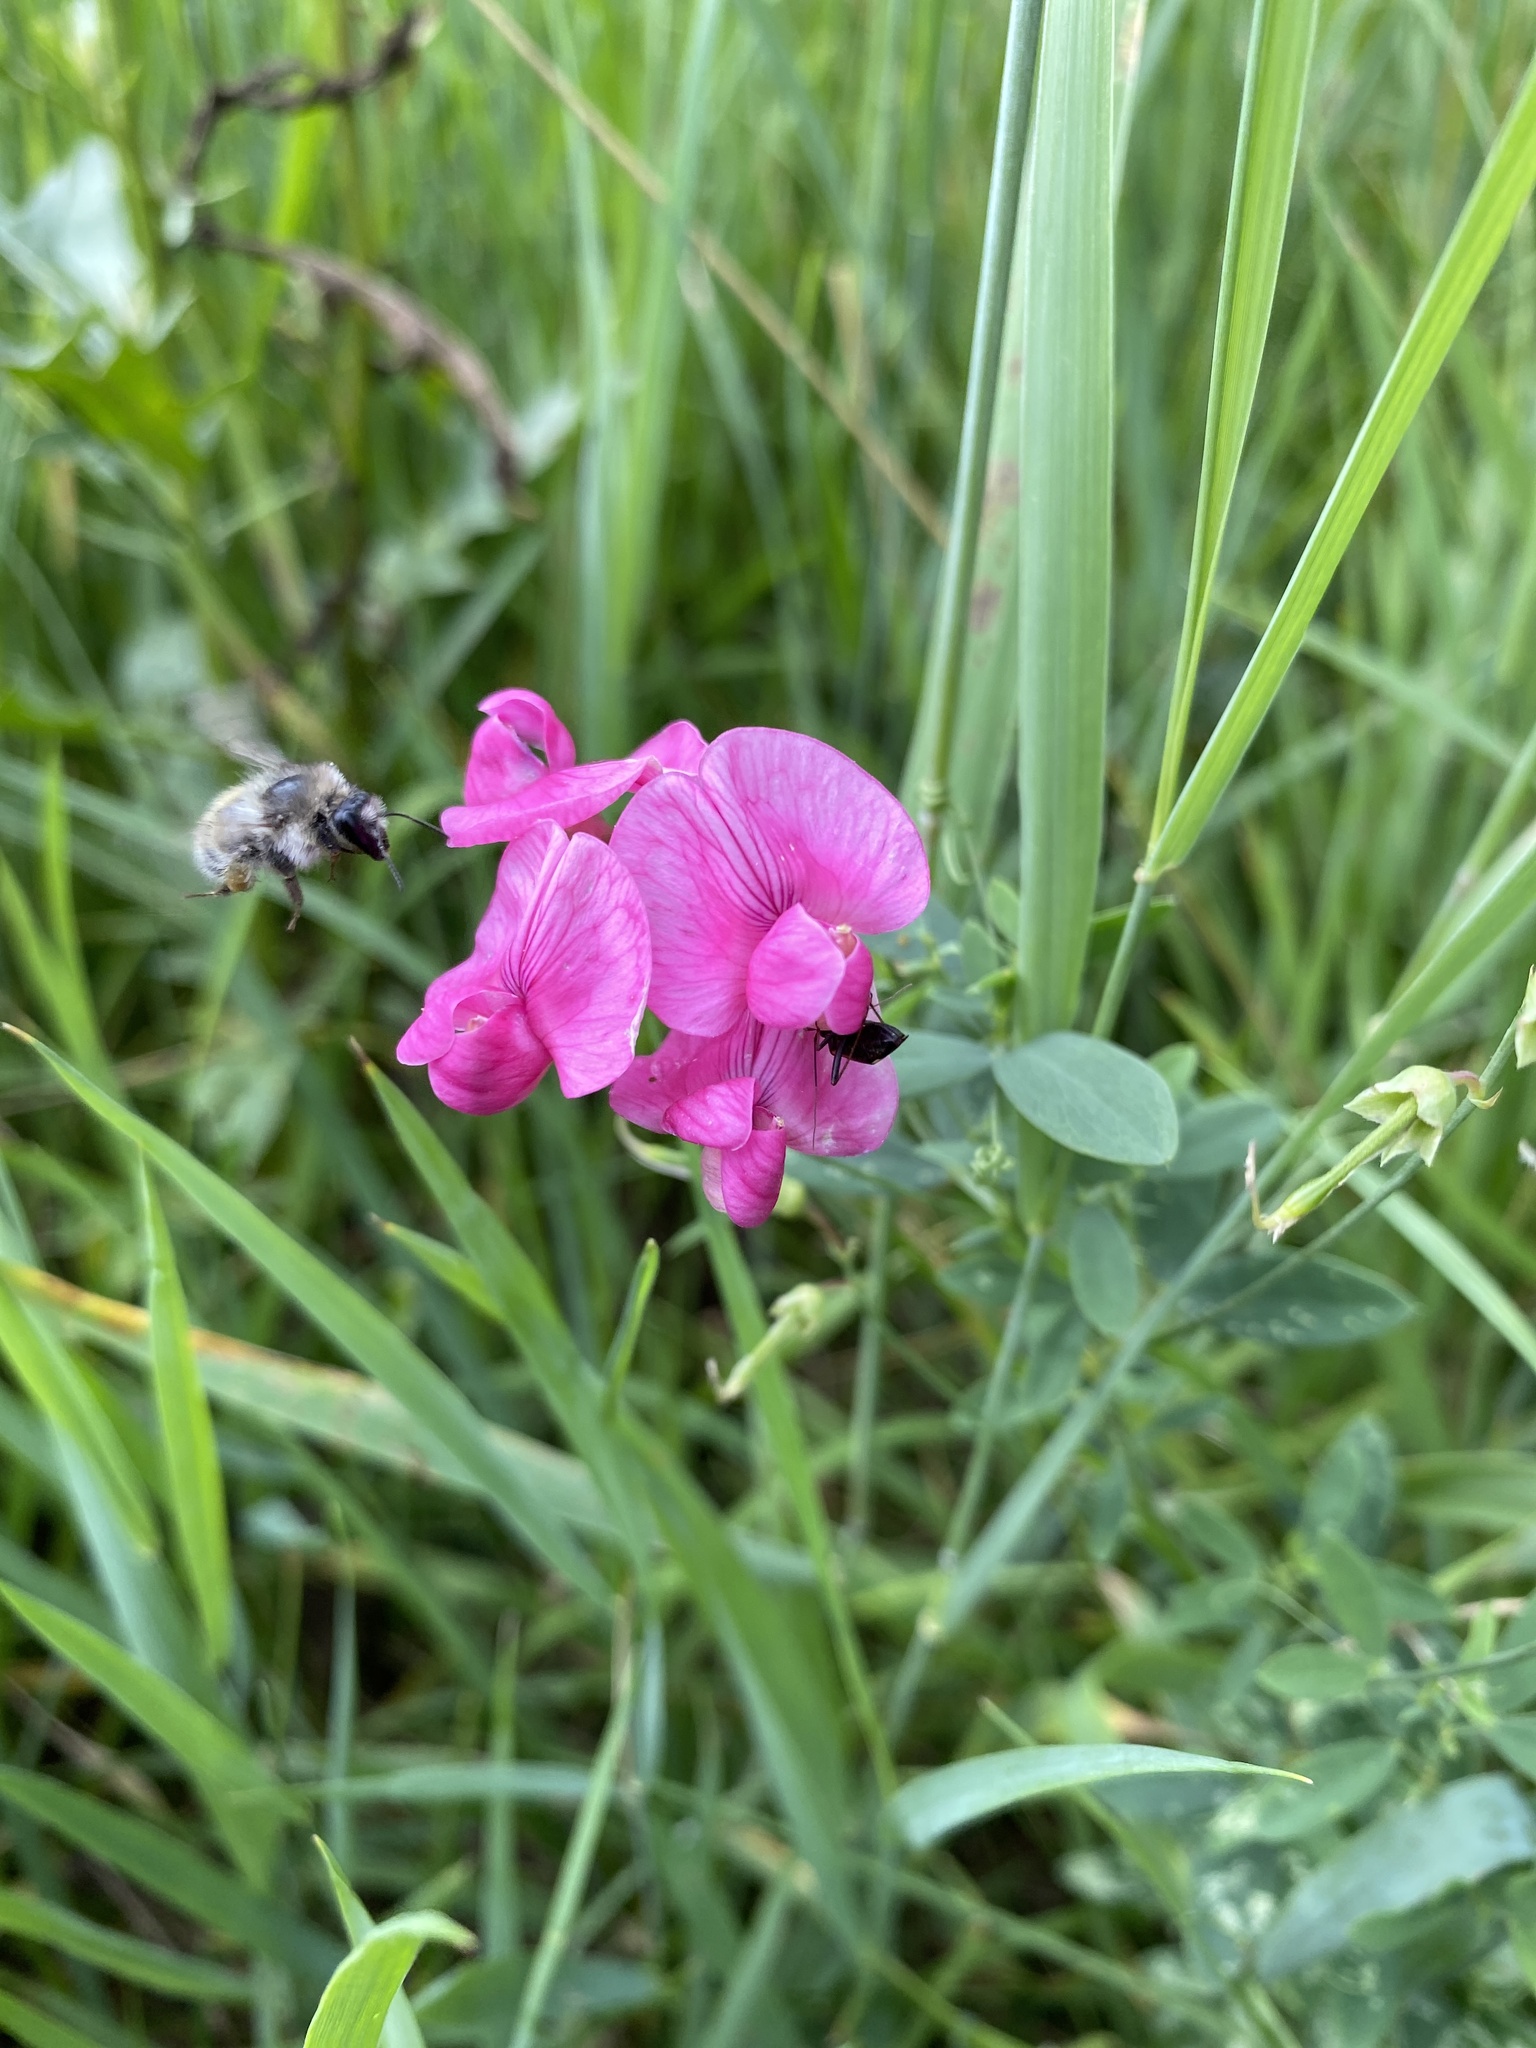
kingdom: Plantae
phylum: Tracheophyta
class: Magnoliopsida
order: Fabales
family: Fabaceae
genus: Lathyrus
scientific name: Lathyrus tuberosus
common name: Tuberous pea
